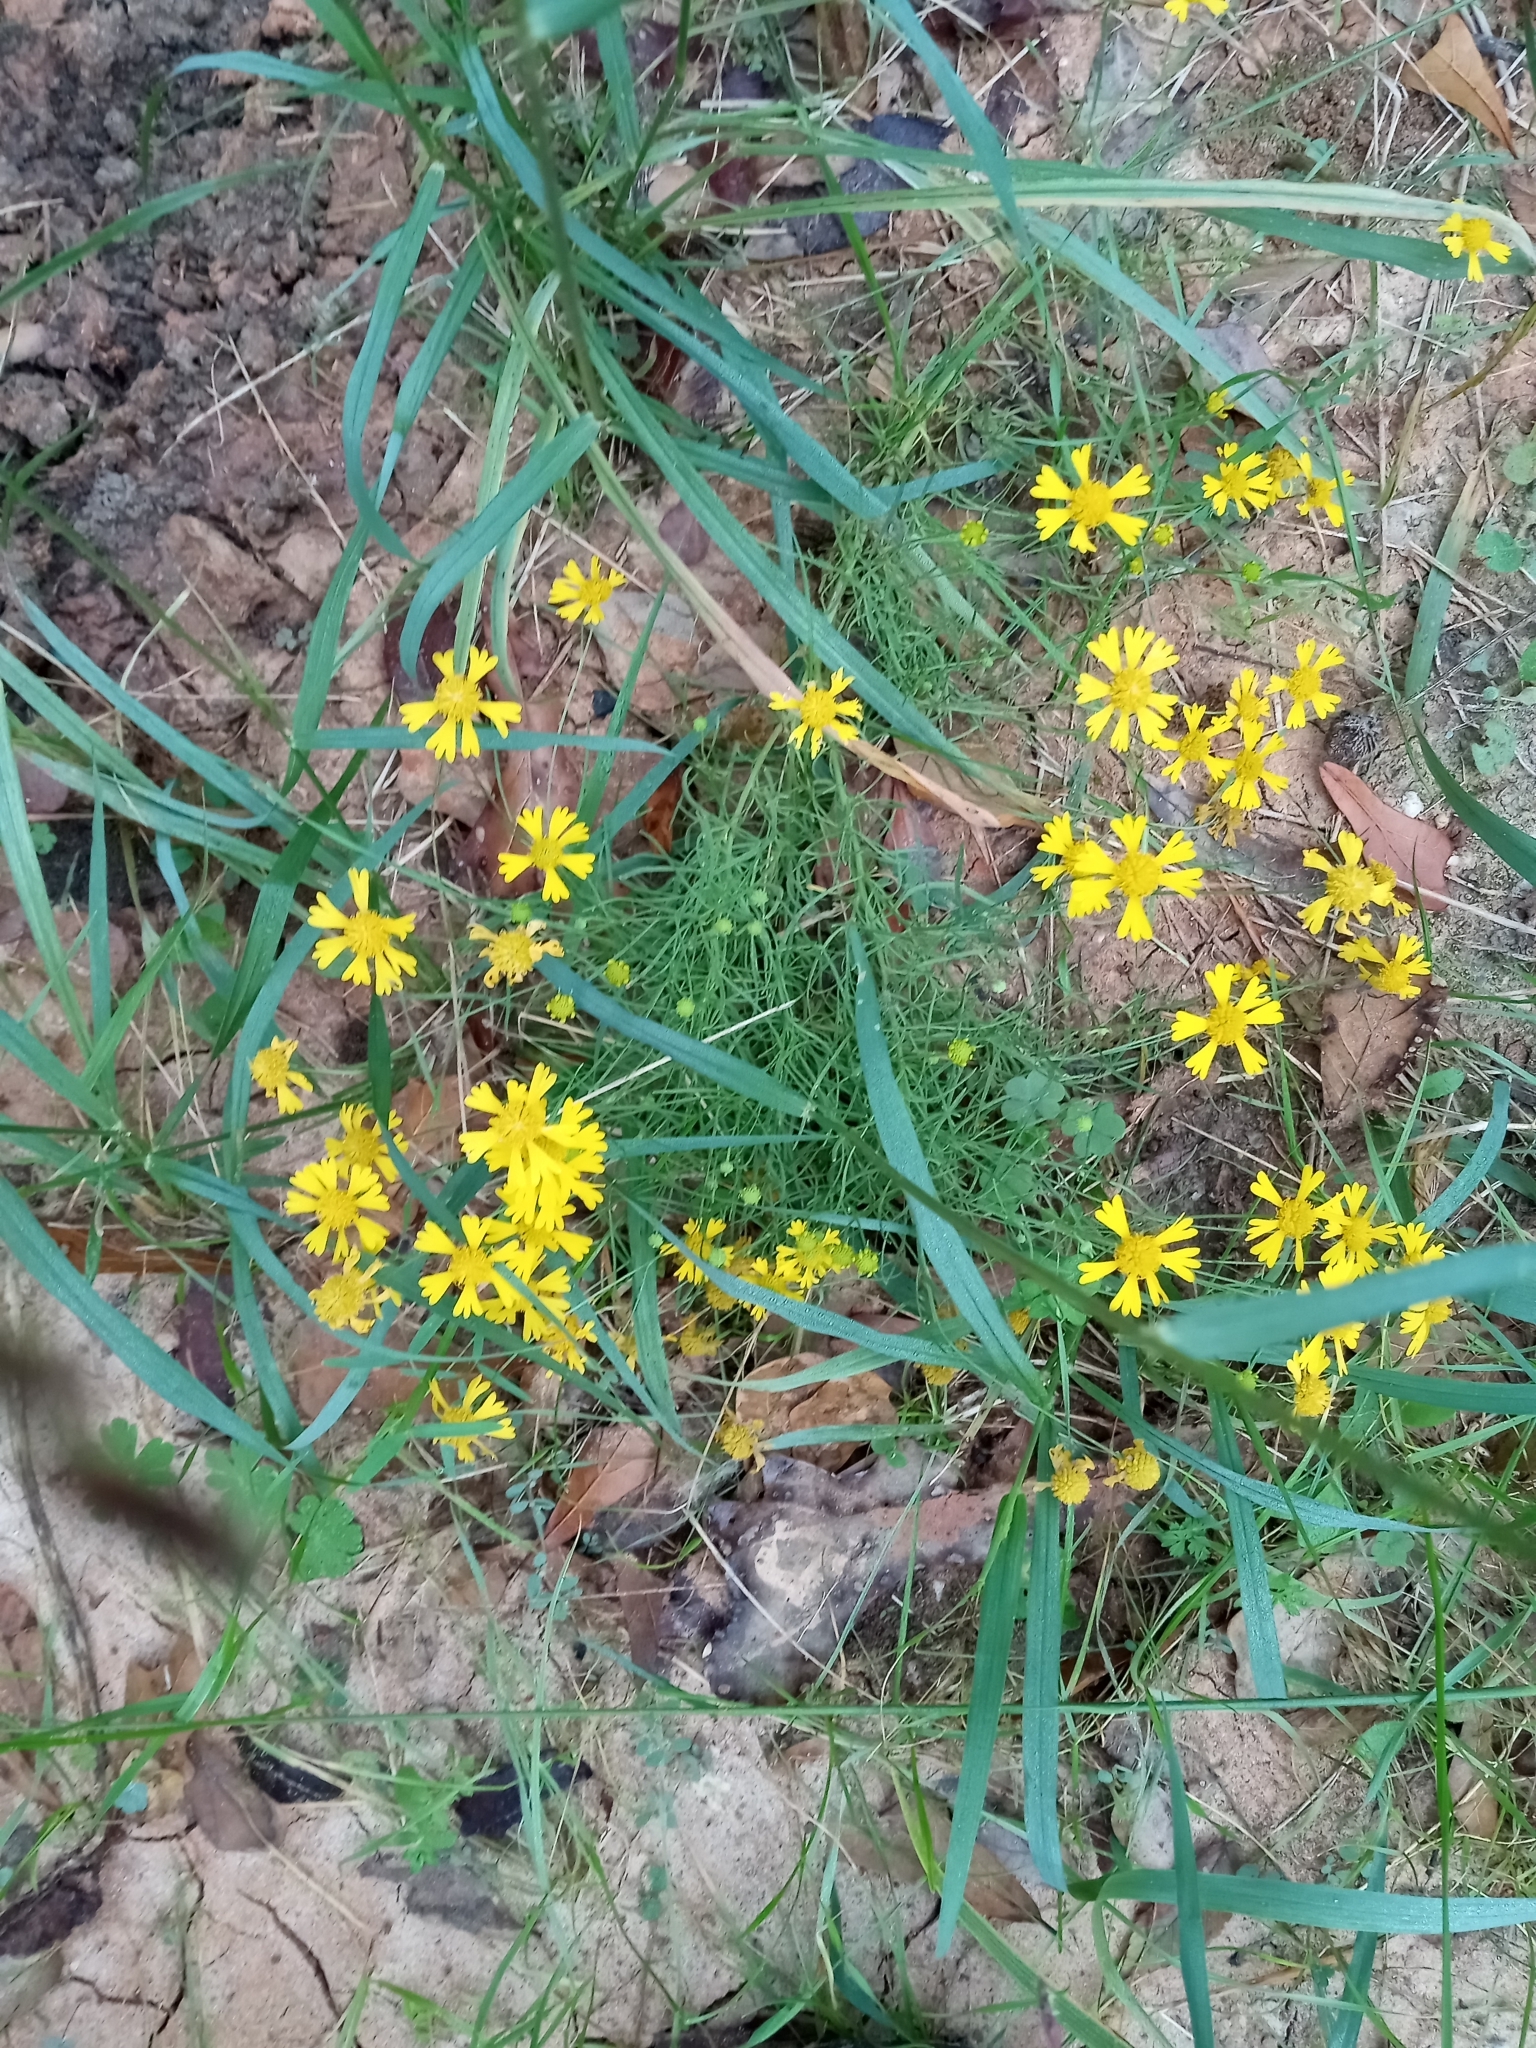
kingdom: Plantae
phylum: Tracheophyta
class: Magnoliopsida
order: Asterales
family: Asteraceae
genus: Helenium
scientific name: Helenium amarum
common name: Bitter sneezeweed
